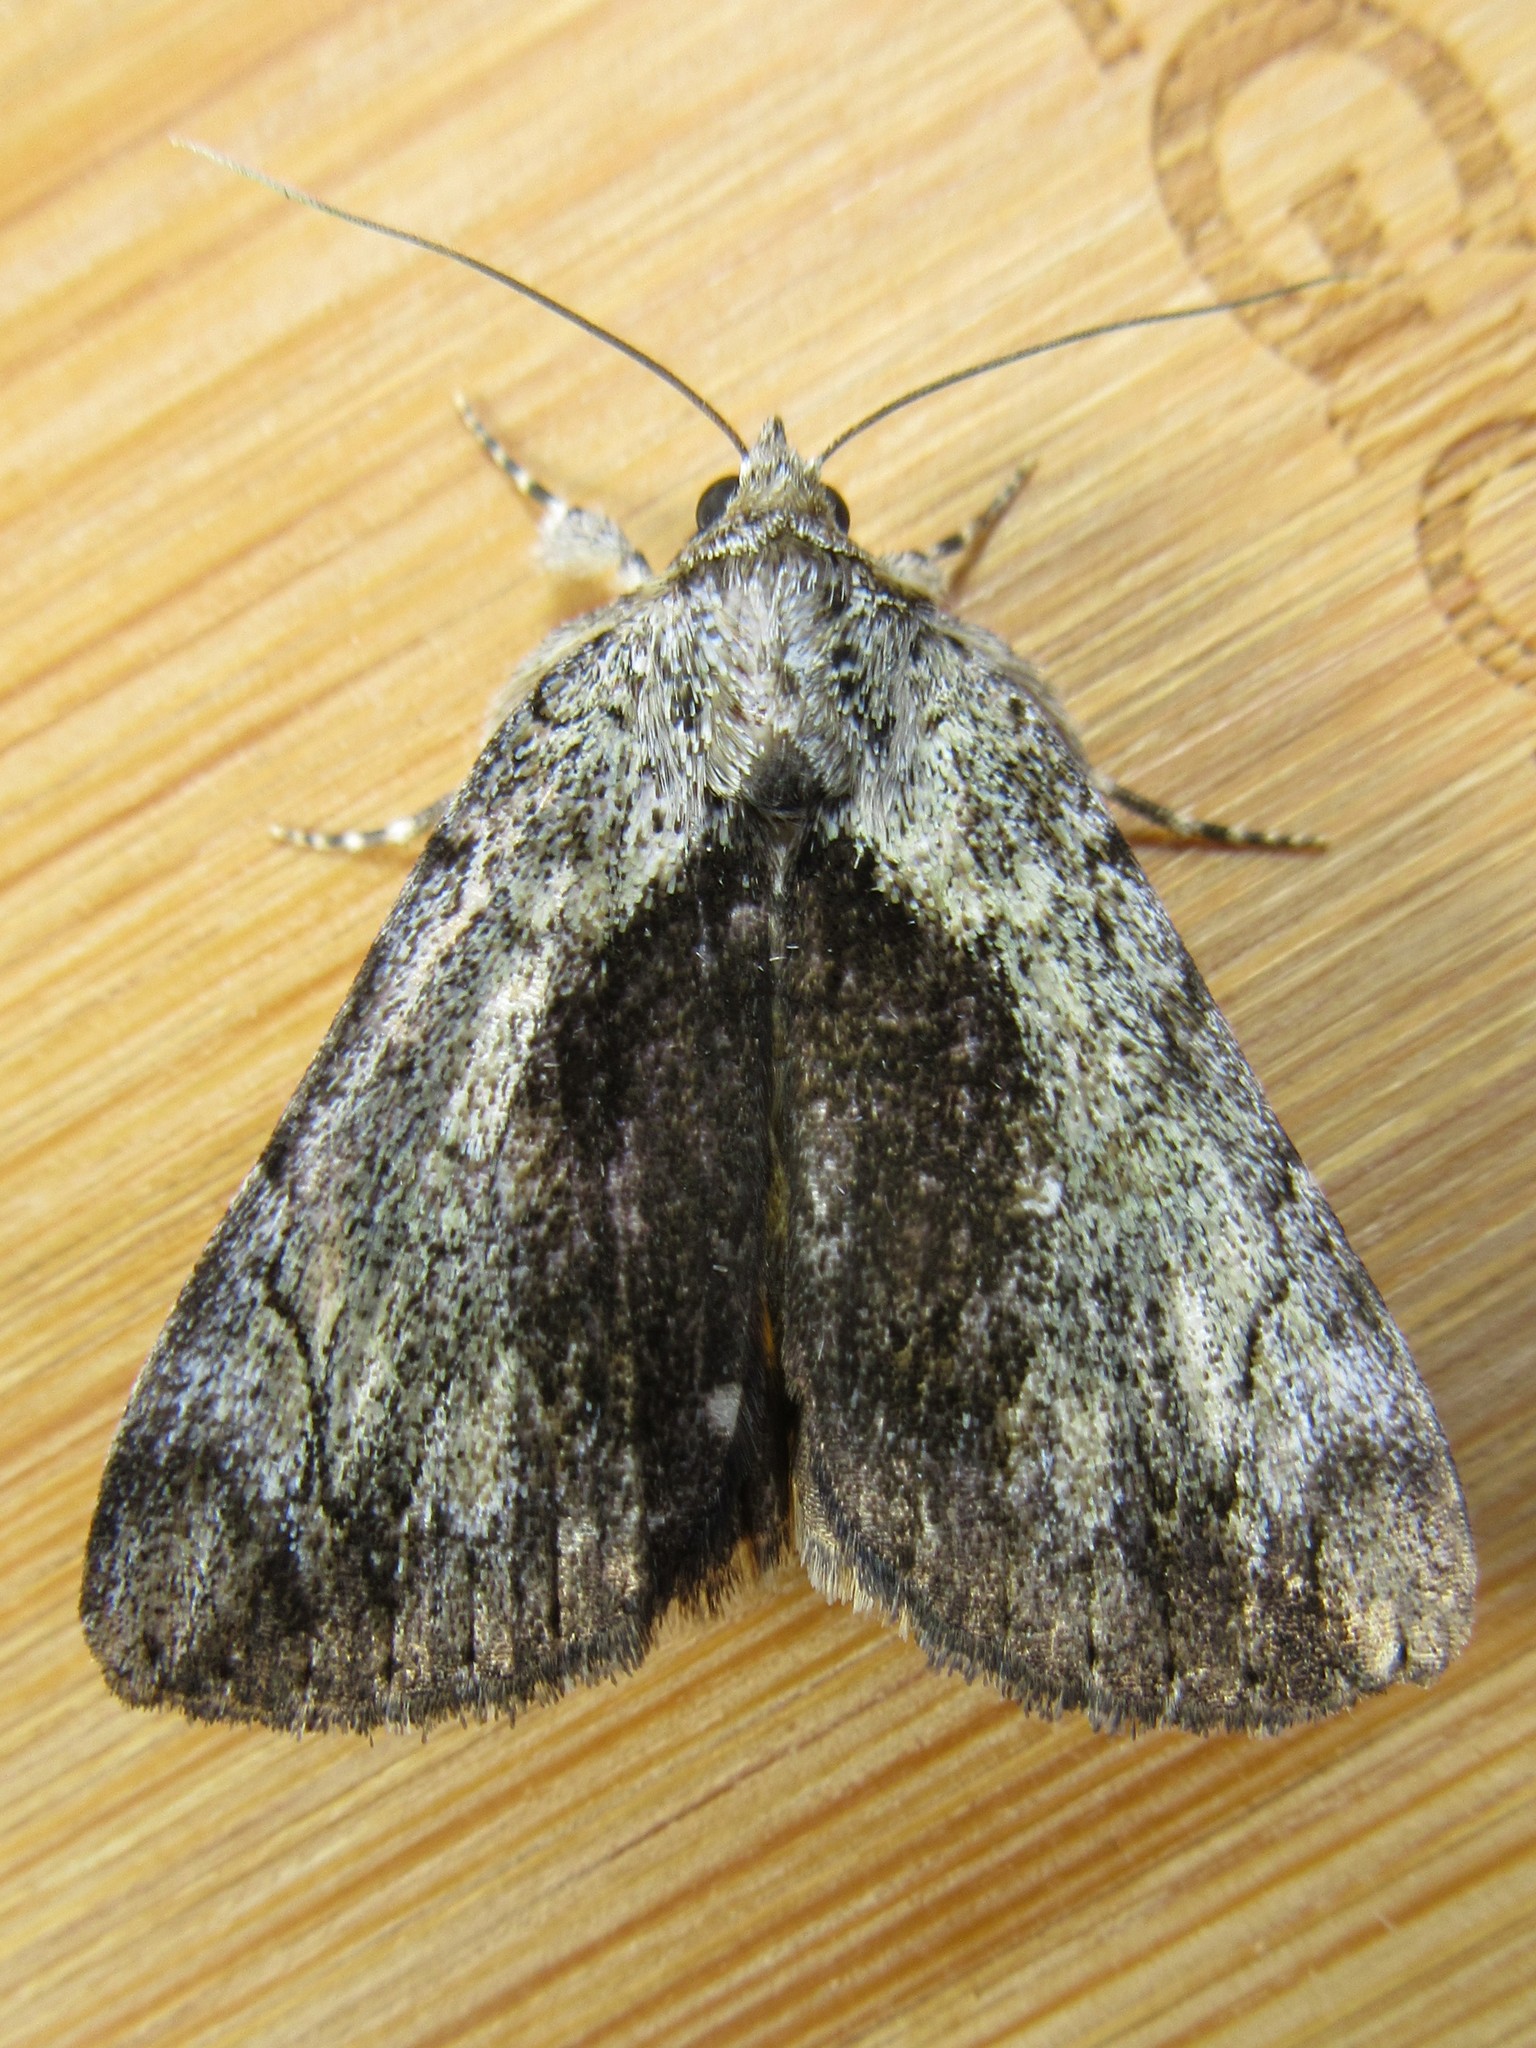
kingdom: Animalia
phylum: Arthropoda
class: Insecta
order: Lepidoptera
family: Erebidae
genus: Catocala
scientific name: Catocala minuta
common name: Little underwing
